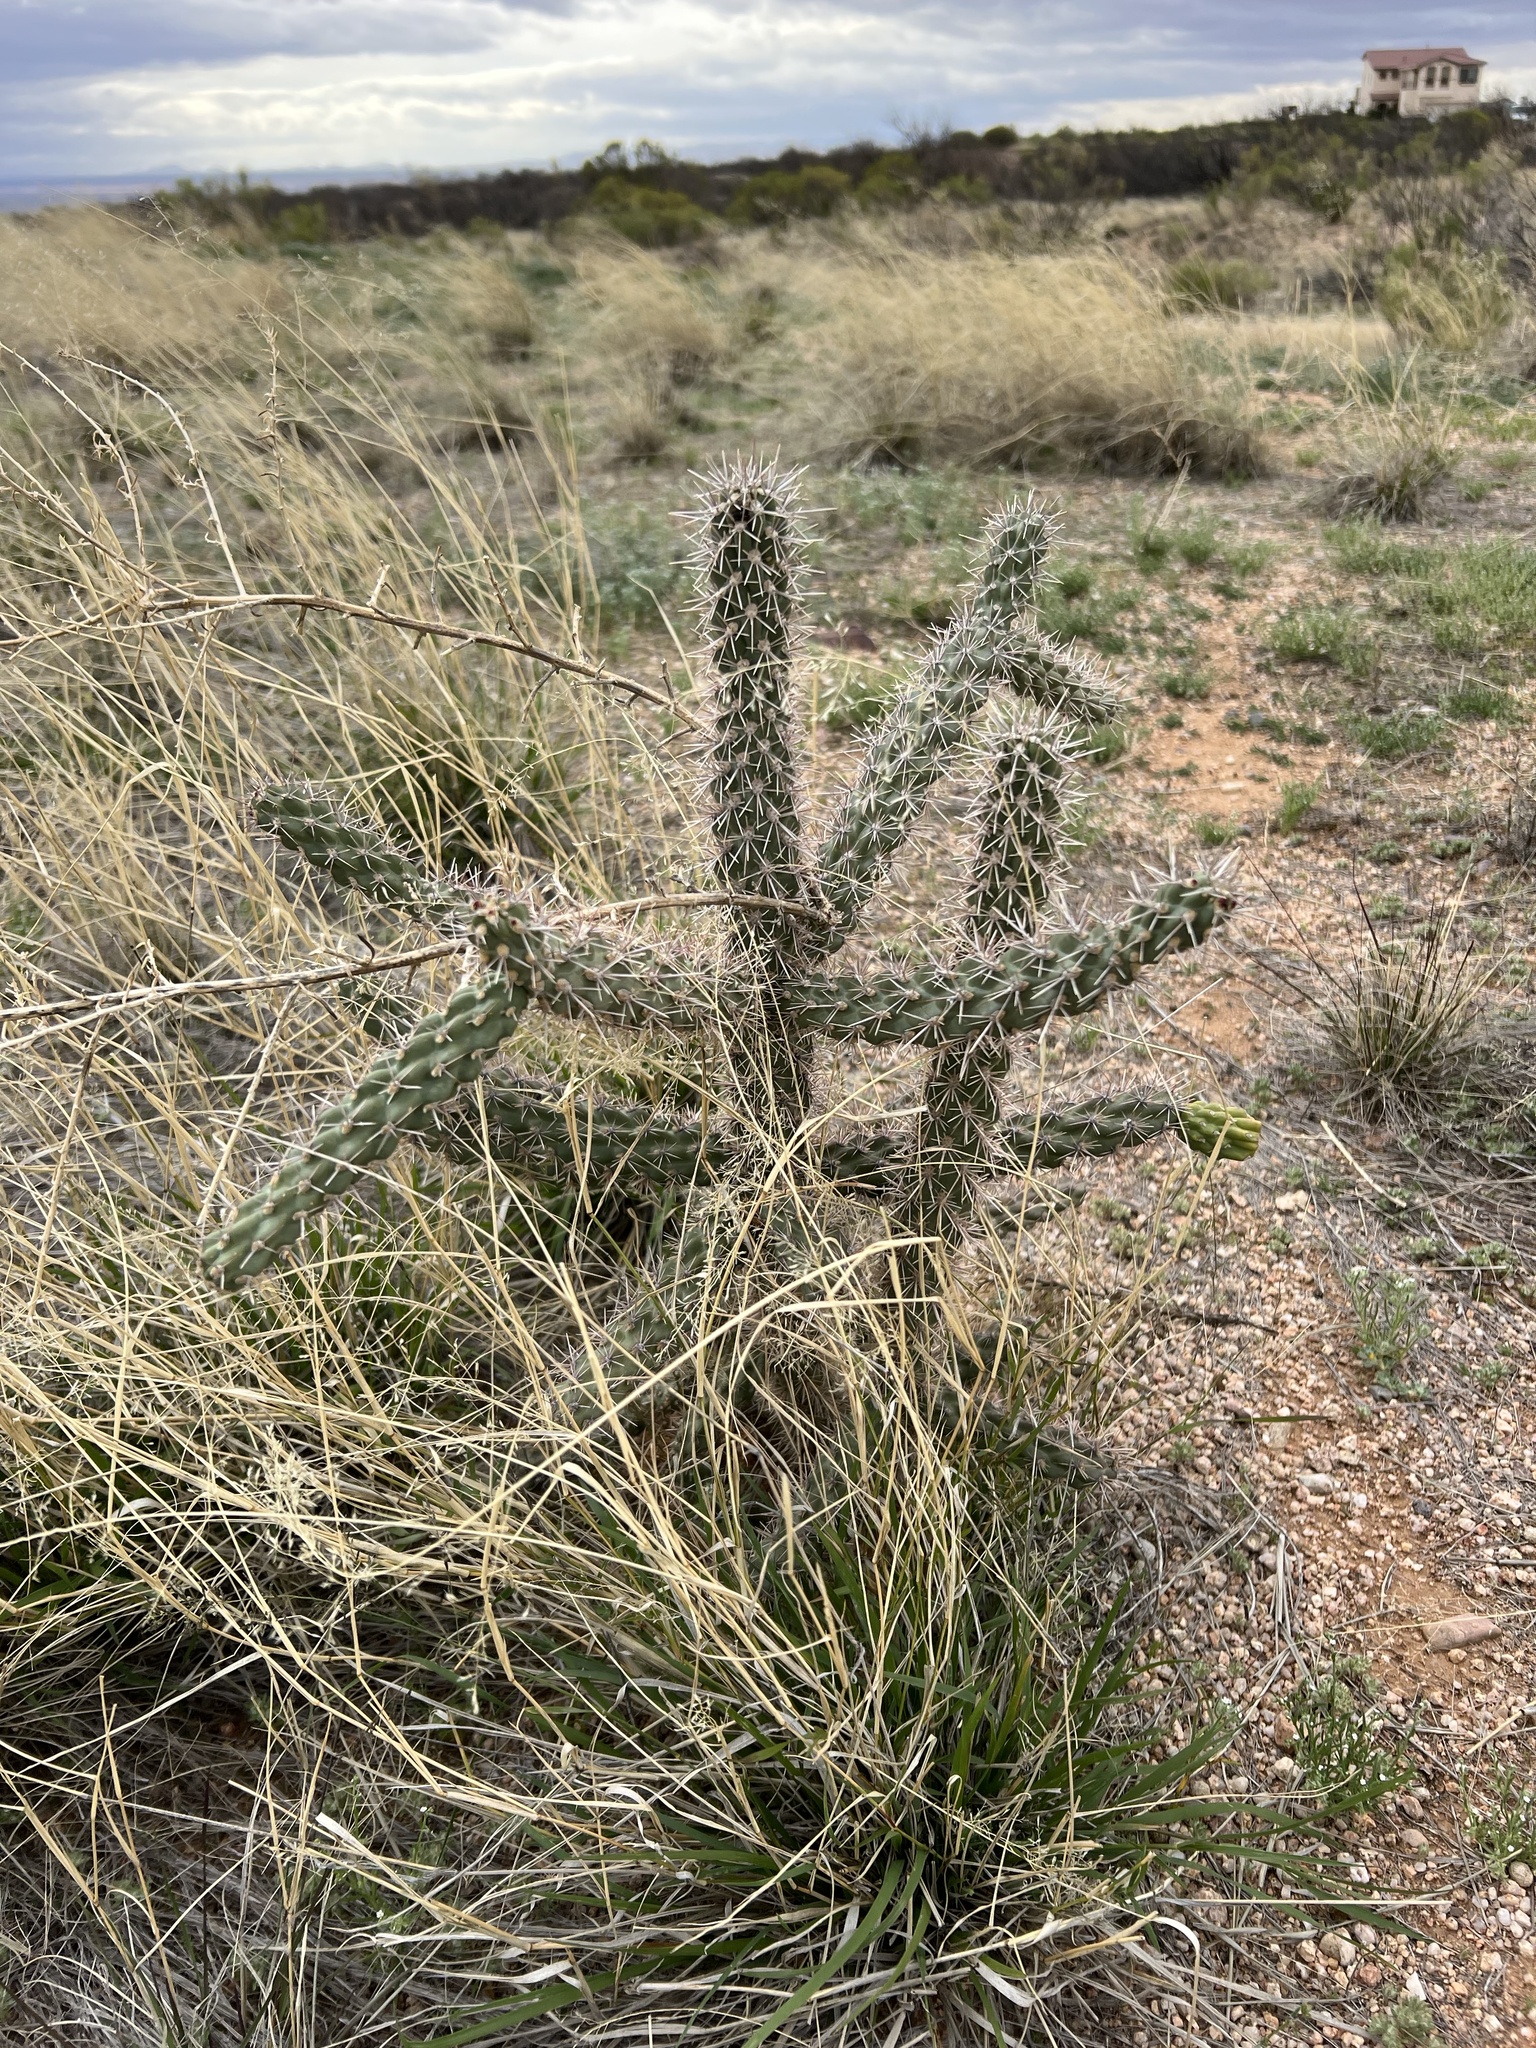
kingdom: Plantae
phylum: Tracheophyta
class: Magnoliopsida
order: Caryophyllales
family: Cactaceae
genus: Cylindropuntia
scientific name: Cylindropuntia imbricata
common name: Candelabrum cactus
